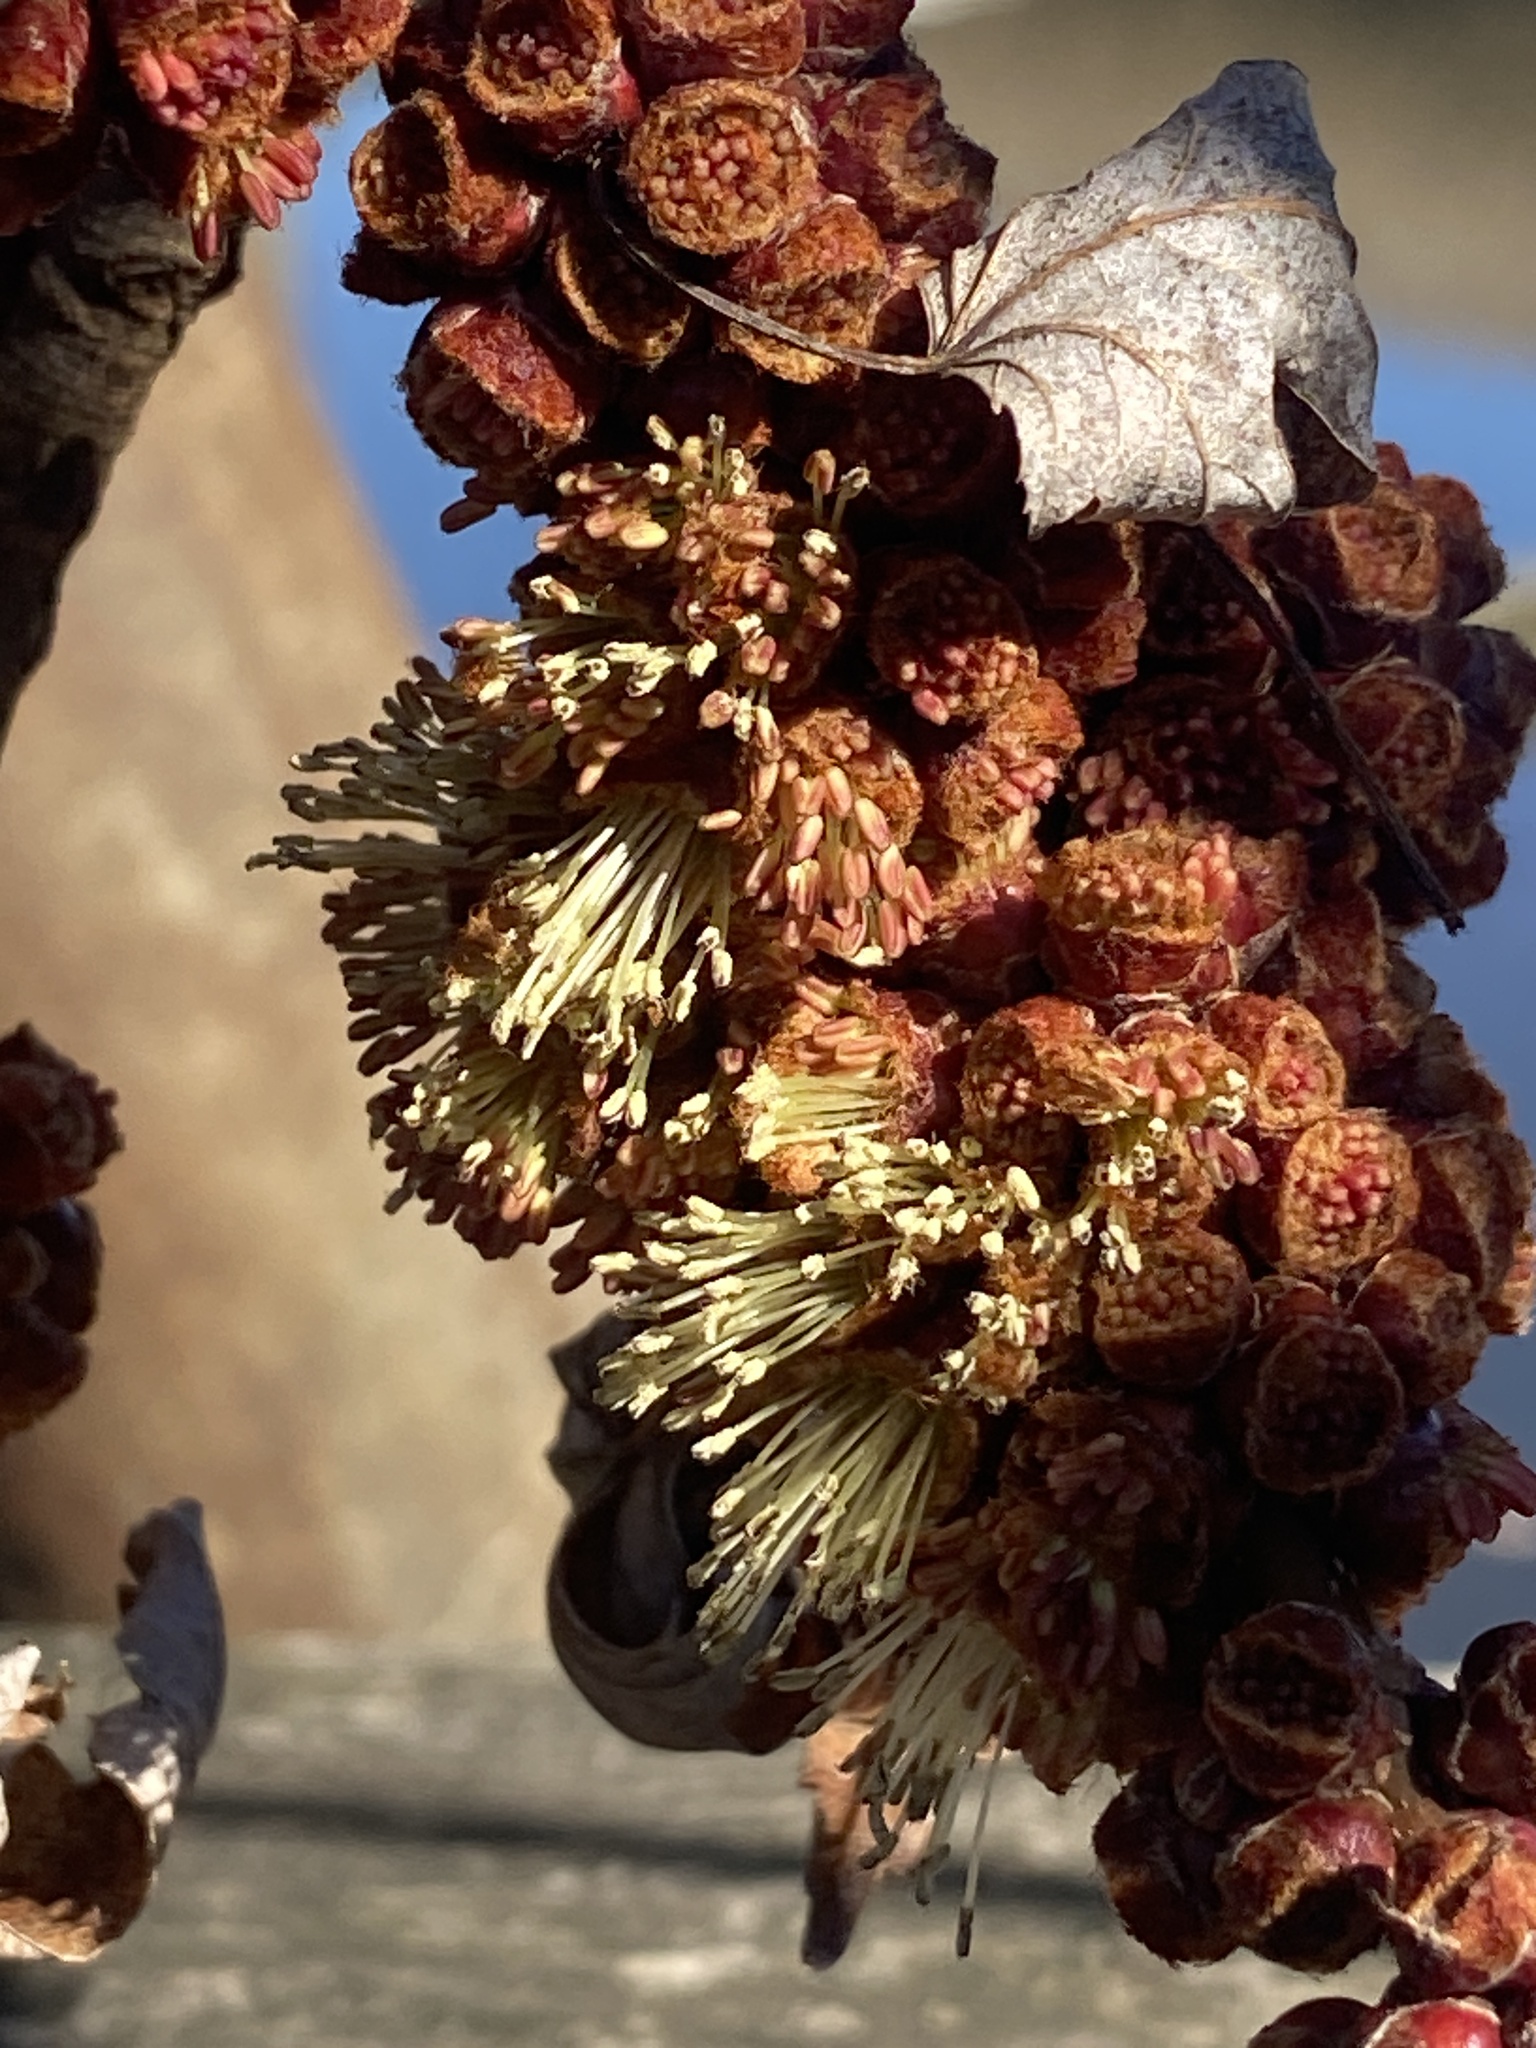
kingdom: Plantae
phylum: Tracheophyta
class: Magnoliopsida
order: Sapindales
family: Sapindaceae
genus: Acer
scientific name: Acer saccharinum
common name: Silver maple
